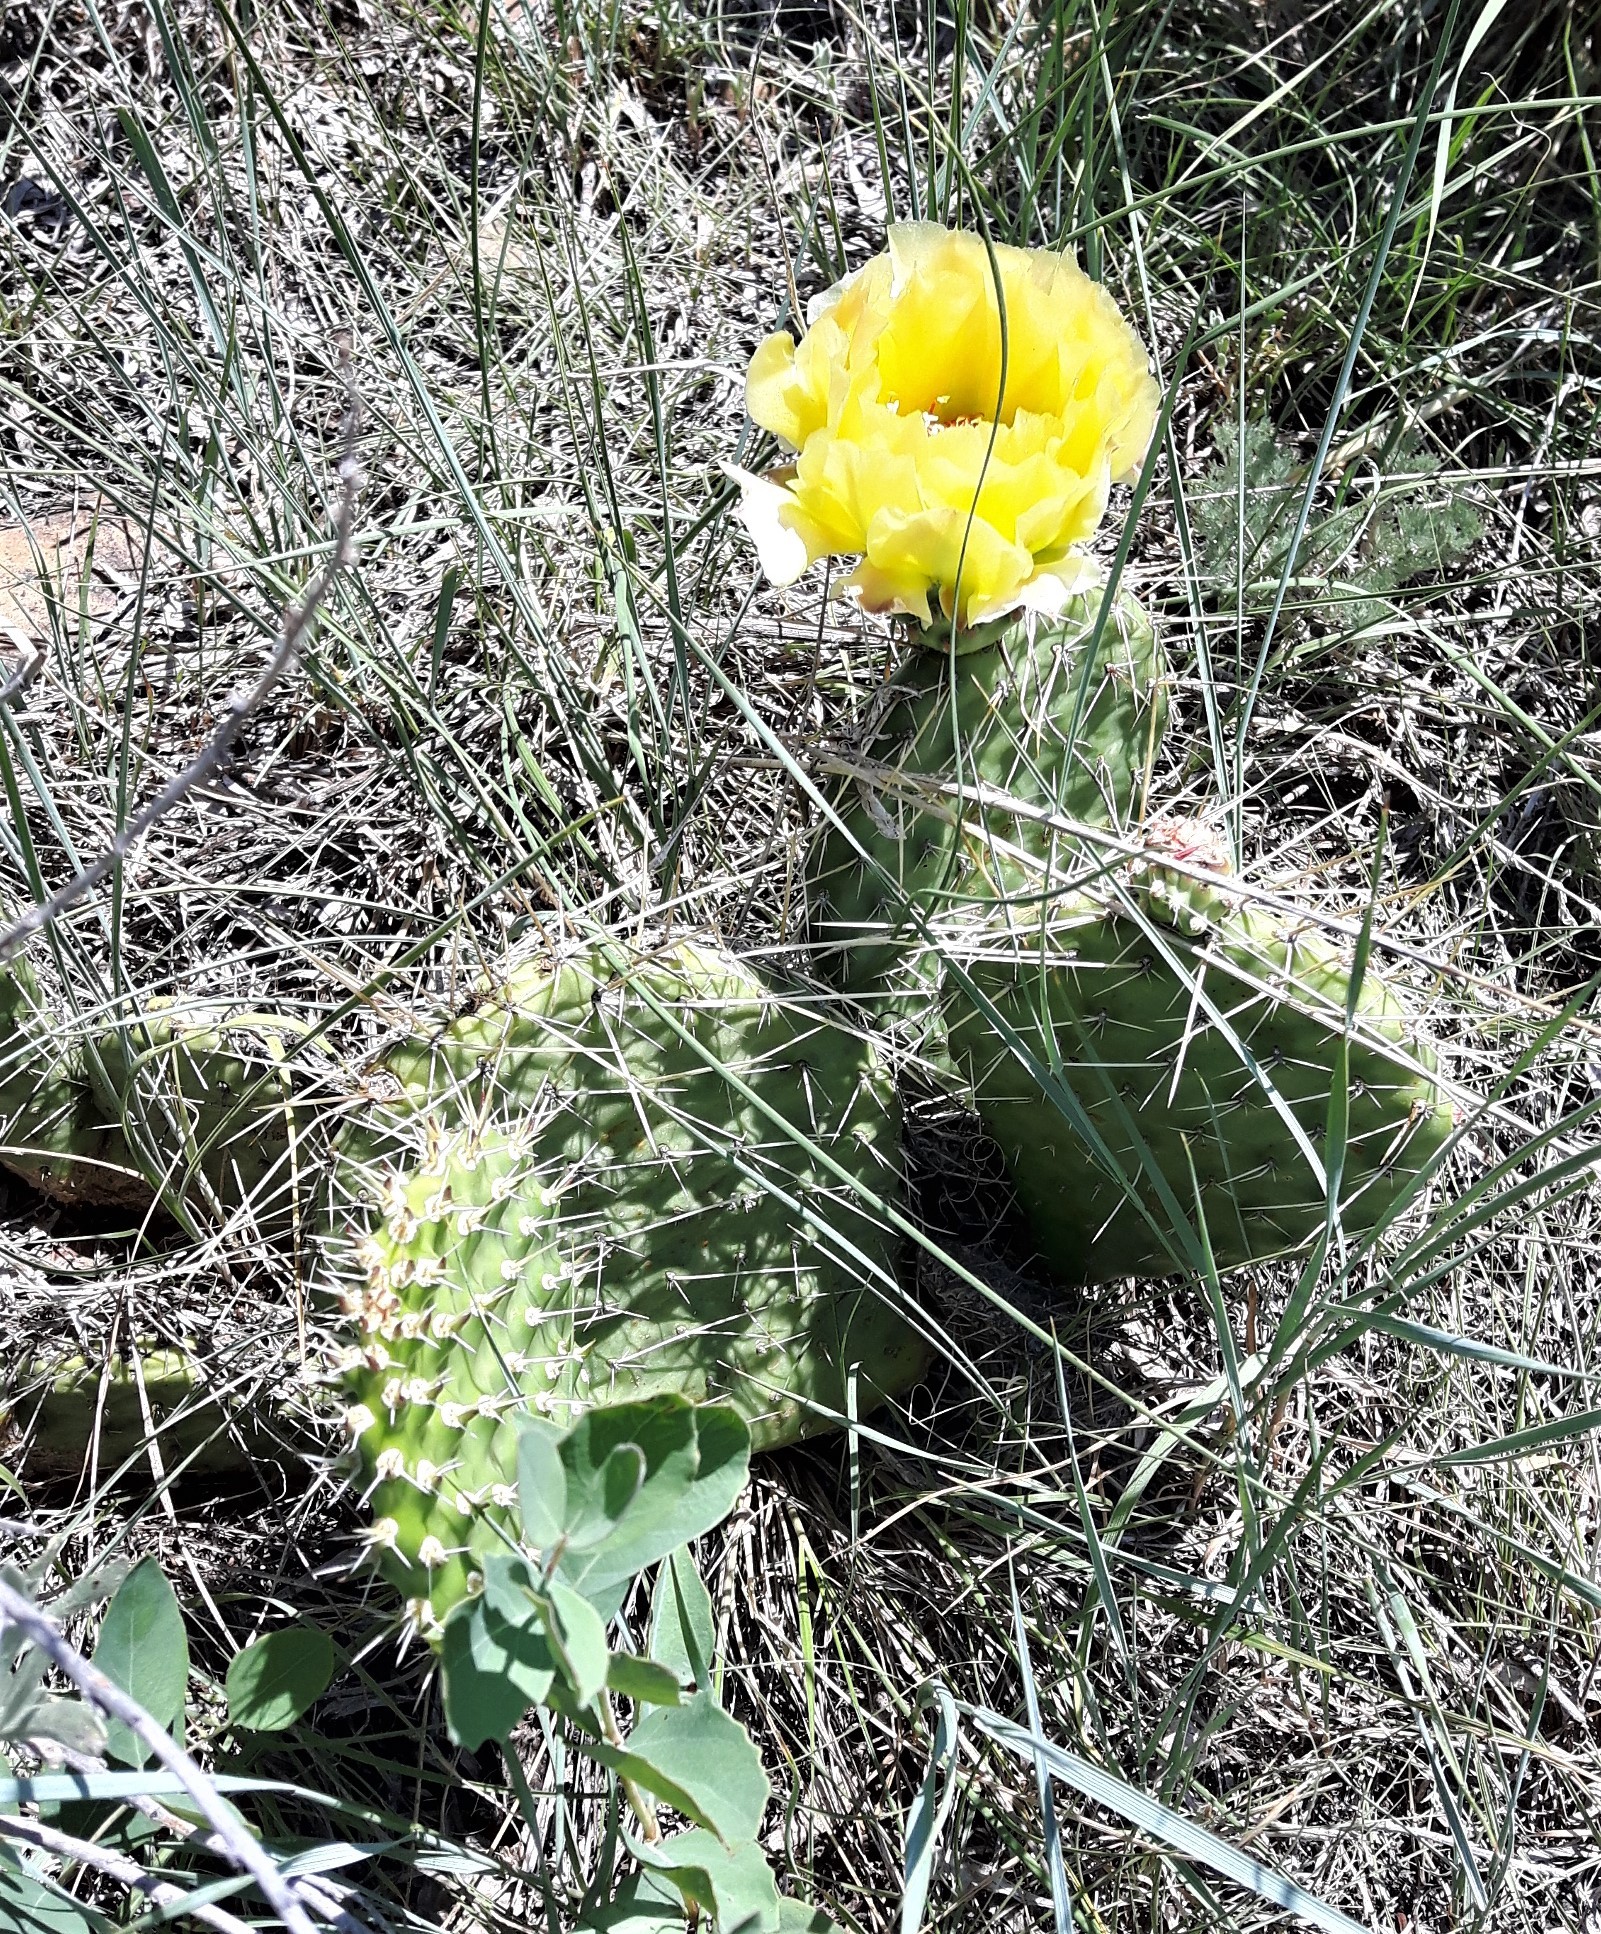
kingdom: Plantae
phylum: Tracheophyta
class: Magnoliopsida
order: Caryophyllales
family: Cactaceae
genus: Opuntia
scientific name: Opuntia polyacantha
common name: Plains prickly-pear
